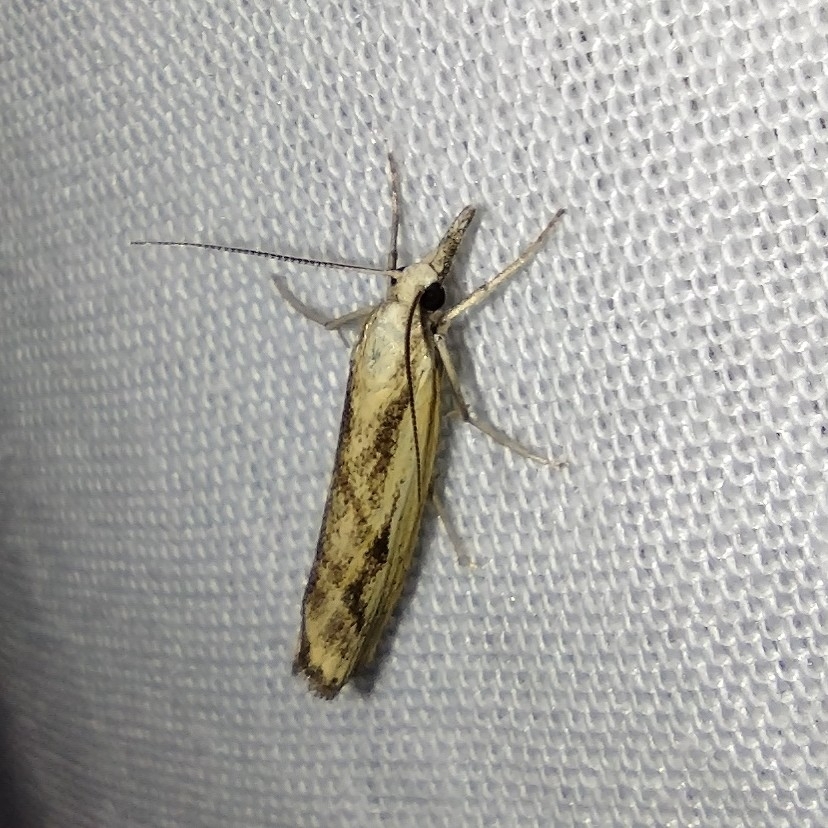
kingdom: Animalia
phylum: Arthropoda
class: Insecta
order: Lepidoptera
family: Crambidae
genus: Agriphila
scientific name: Agriphila inquinatella
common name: Barred grass-veneer
